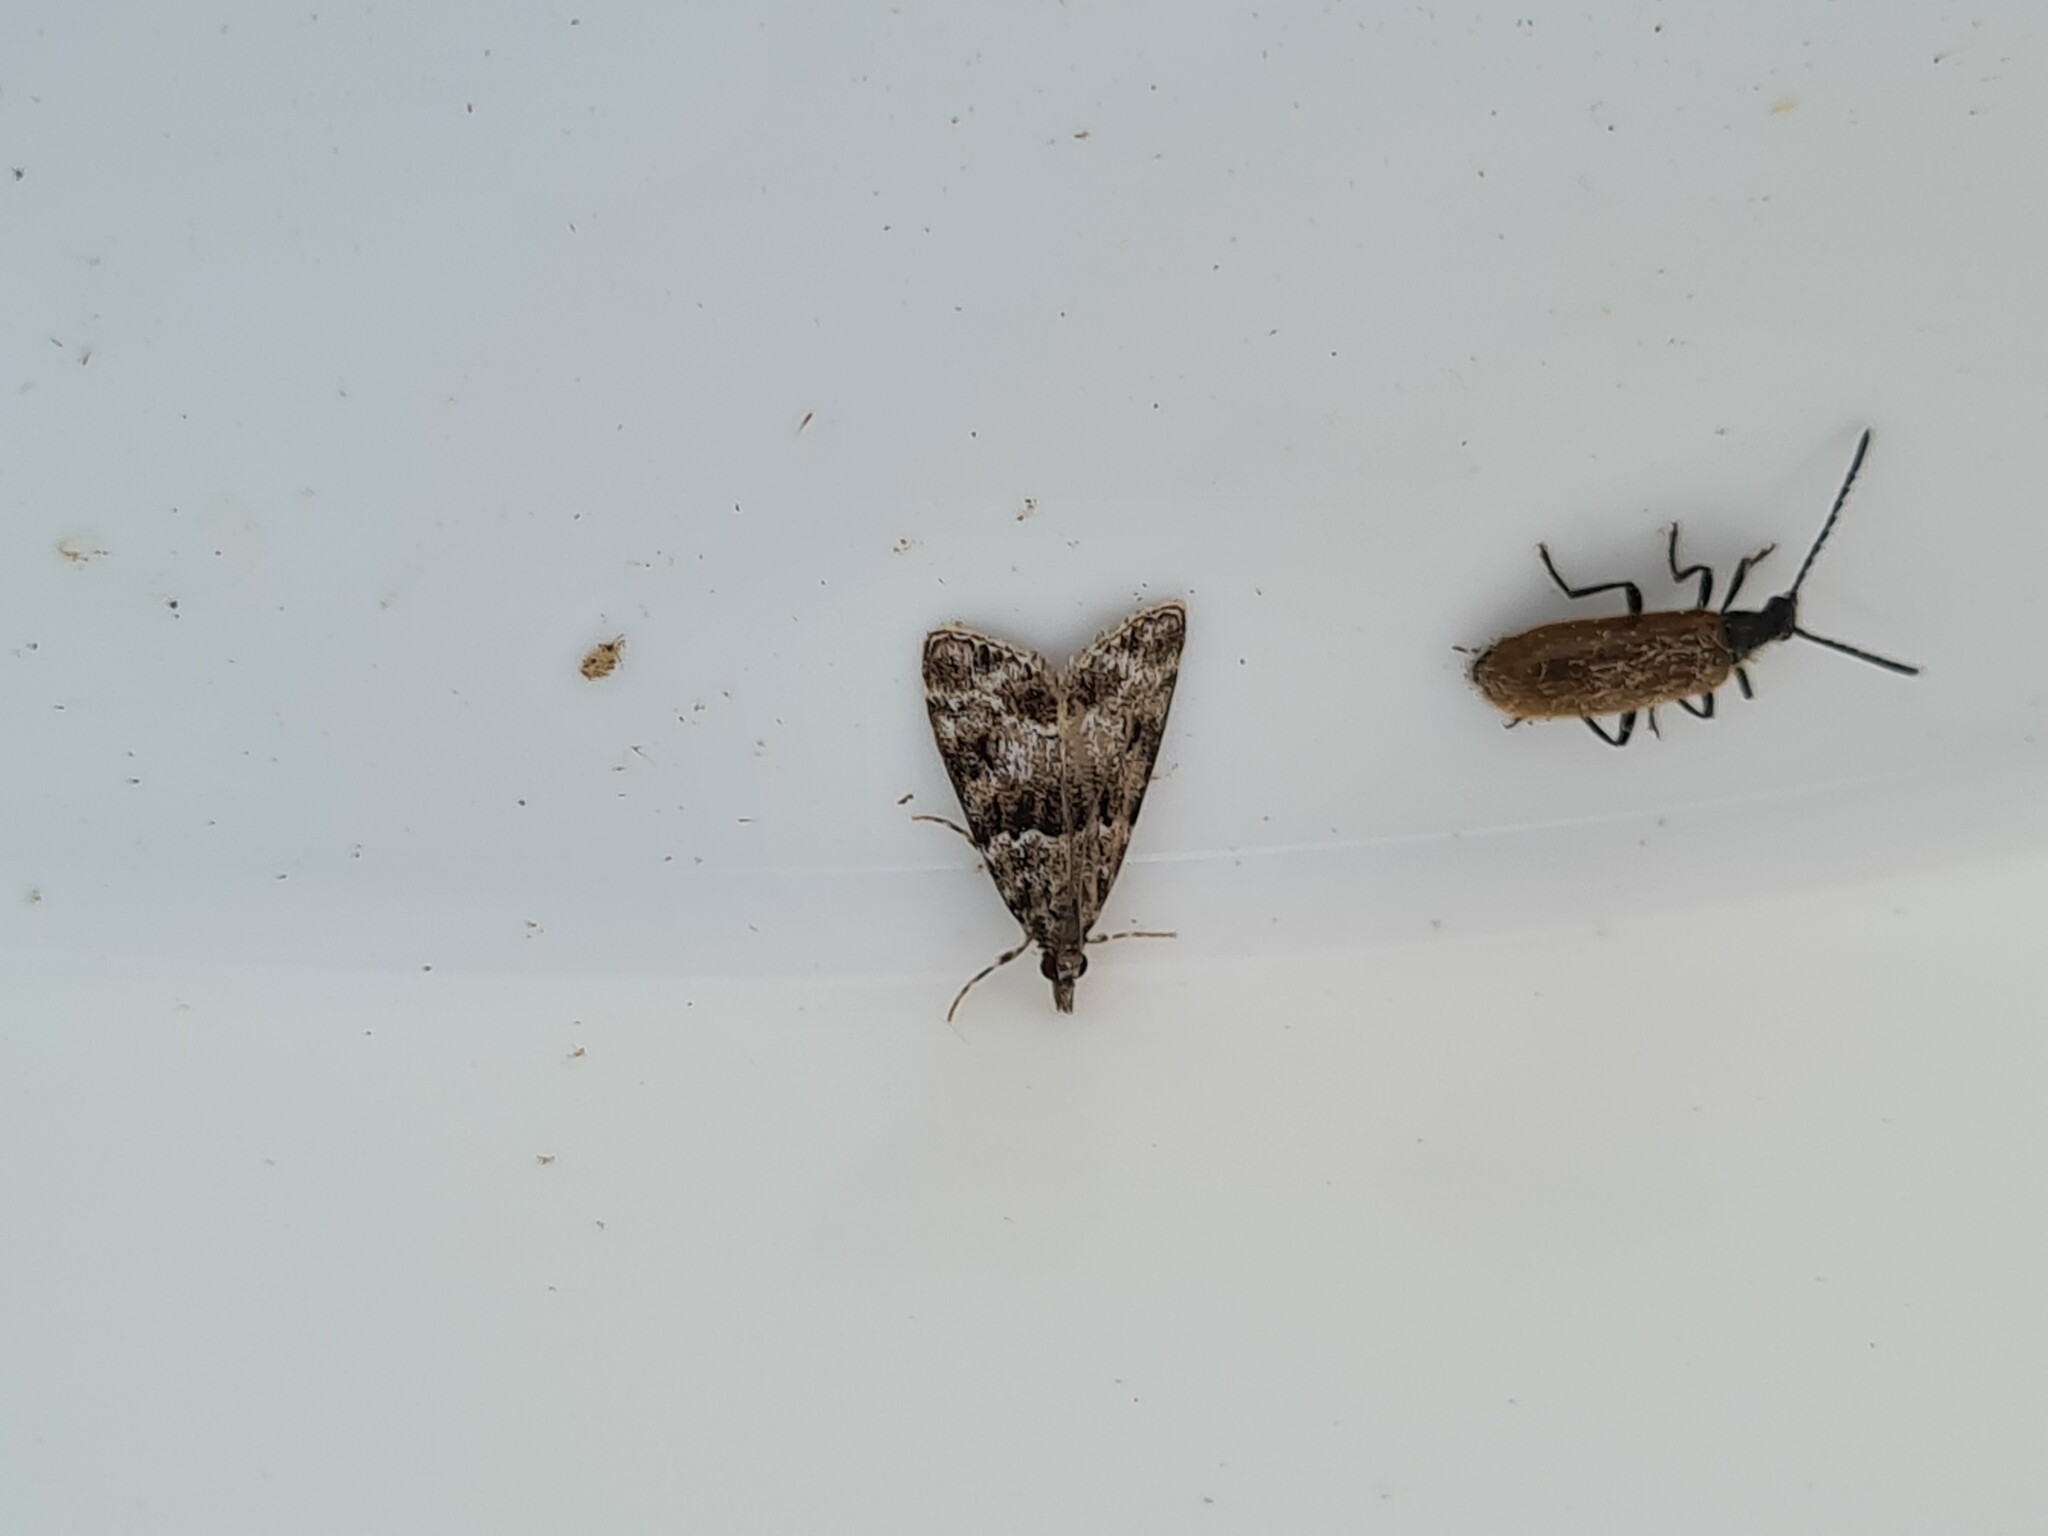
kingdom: Animalia
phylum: Arthropoda
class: Insecta
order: Lepidoptera
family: Crambidae
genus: Eudonia
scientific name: Eudonia mercurella
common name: Small grey
